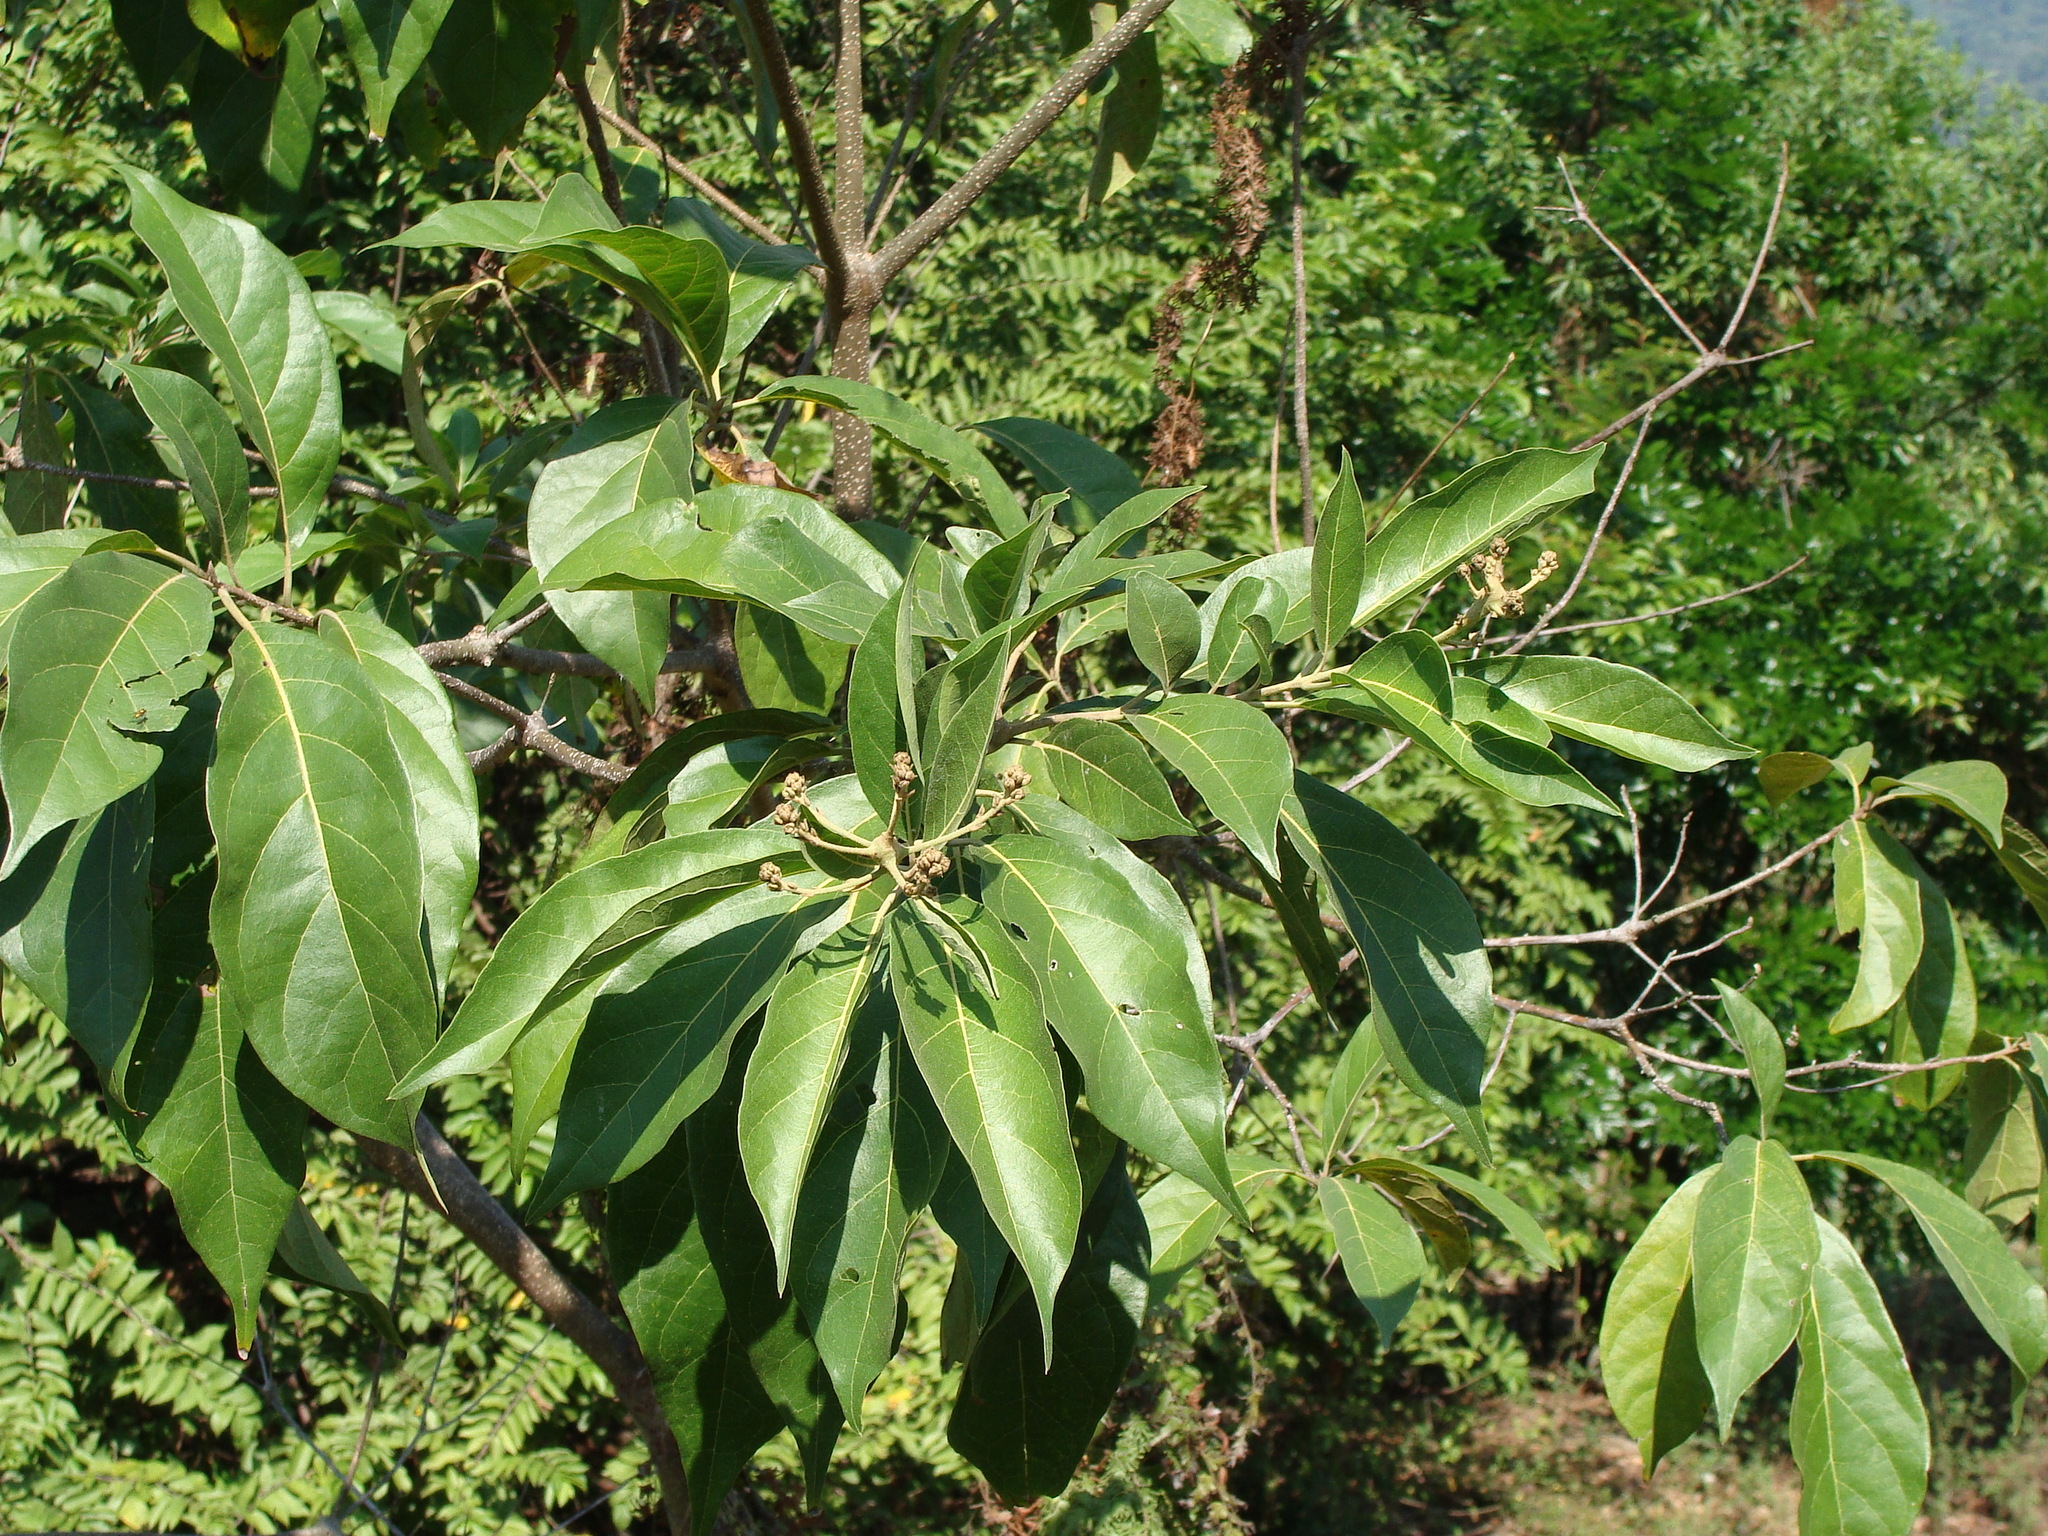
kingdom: Plantae
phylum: Tracheophyta
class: Magnoliopsida
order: Boraginales
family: Cordiaceae
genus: Cordia
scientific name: Cordia alliodora
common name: Spanish elm
